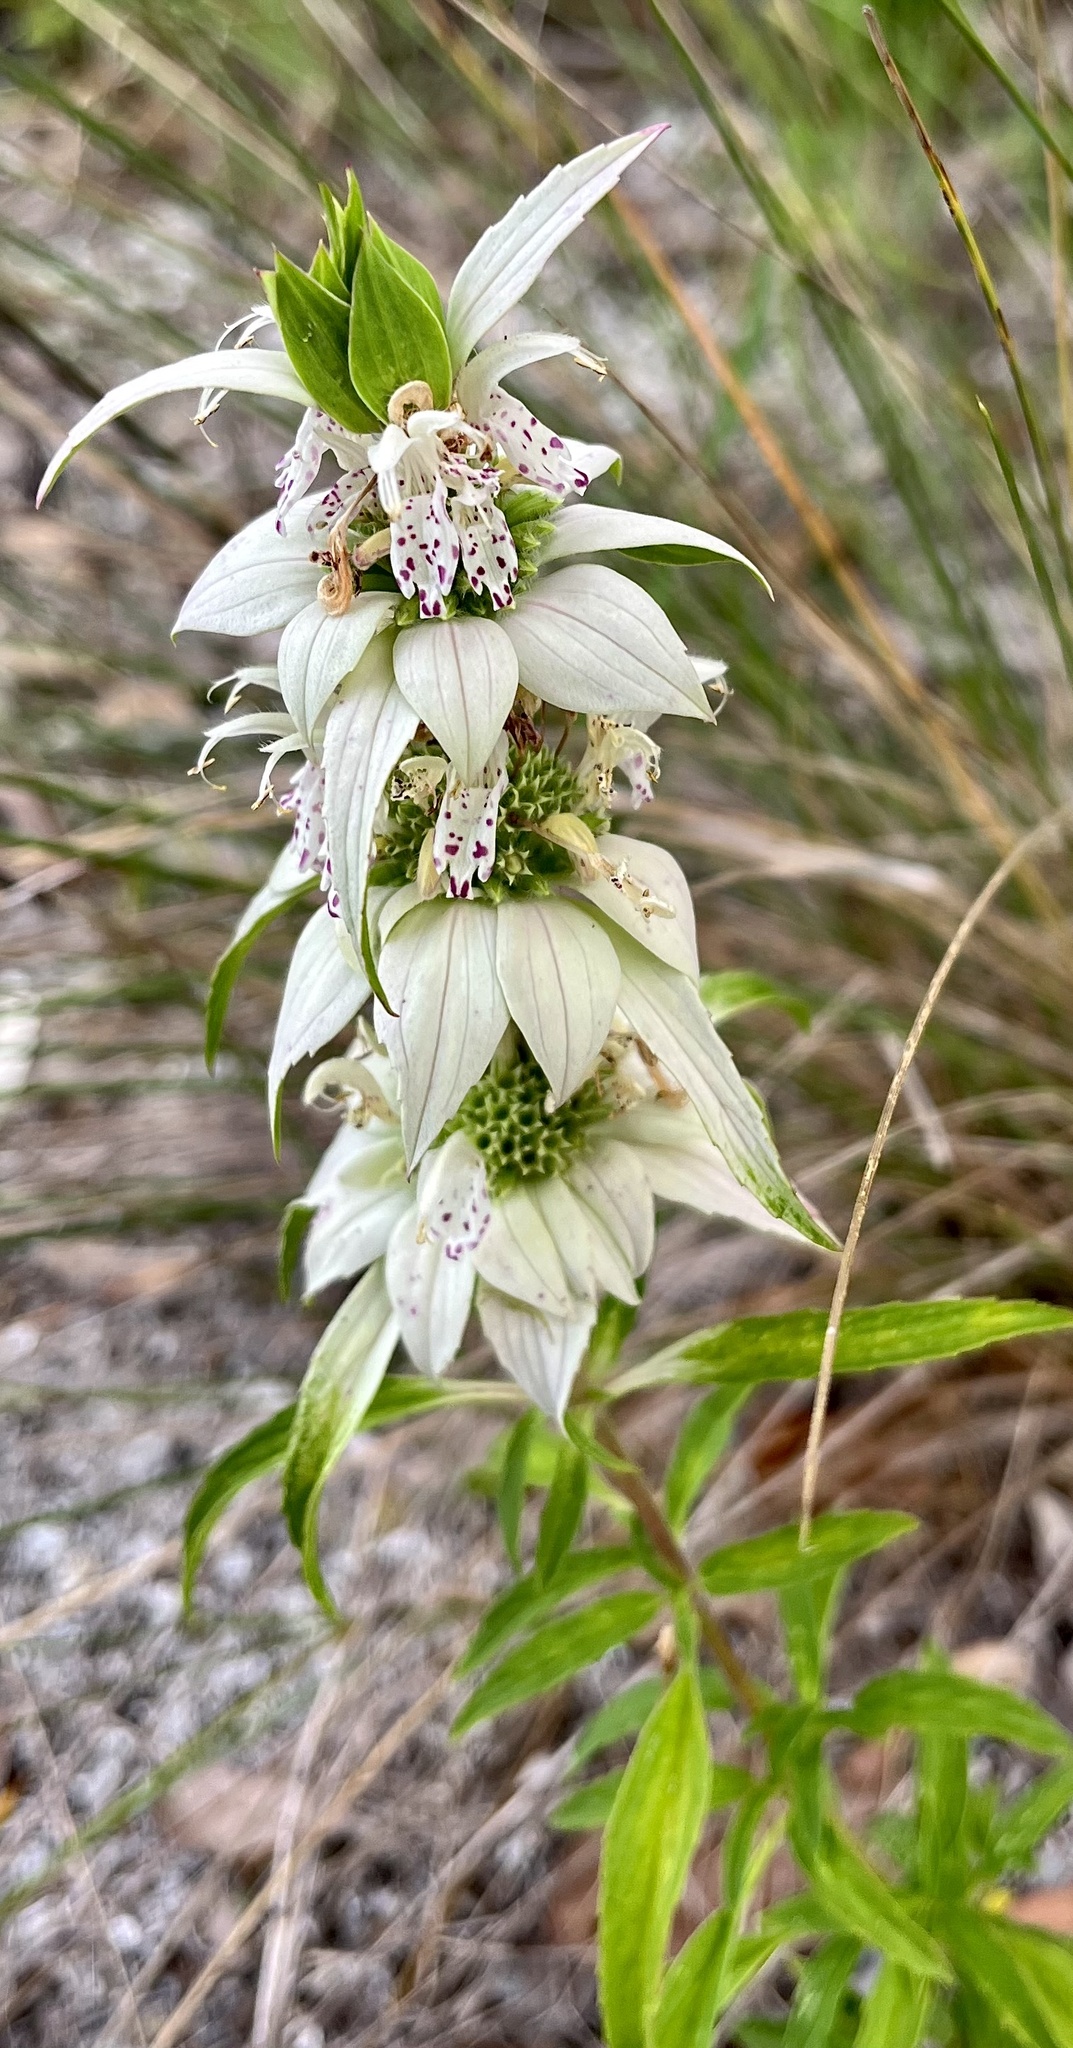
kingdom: Plantae
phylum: Tracheophyta
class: Magnoliopsida
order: Lamiales
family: Lamiaceae
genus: Monarda
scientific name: Monarda punctata
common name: Dotted monarda
